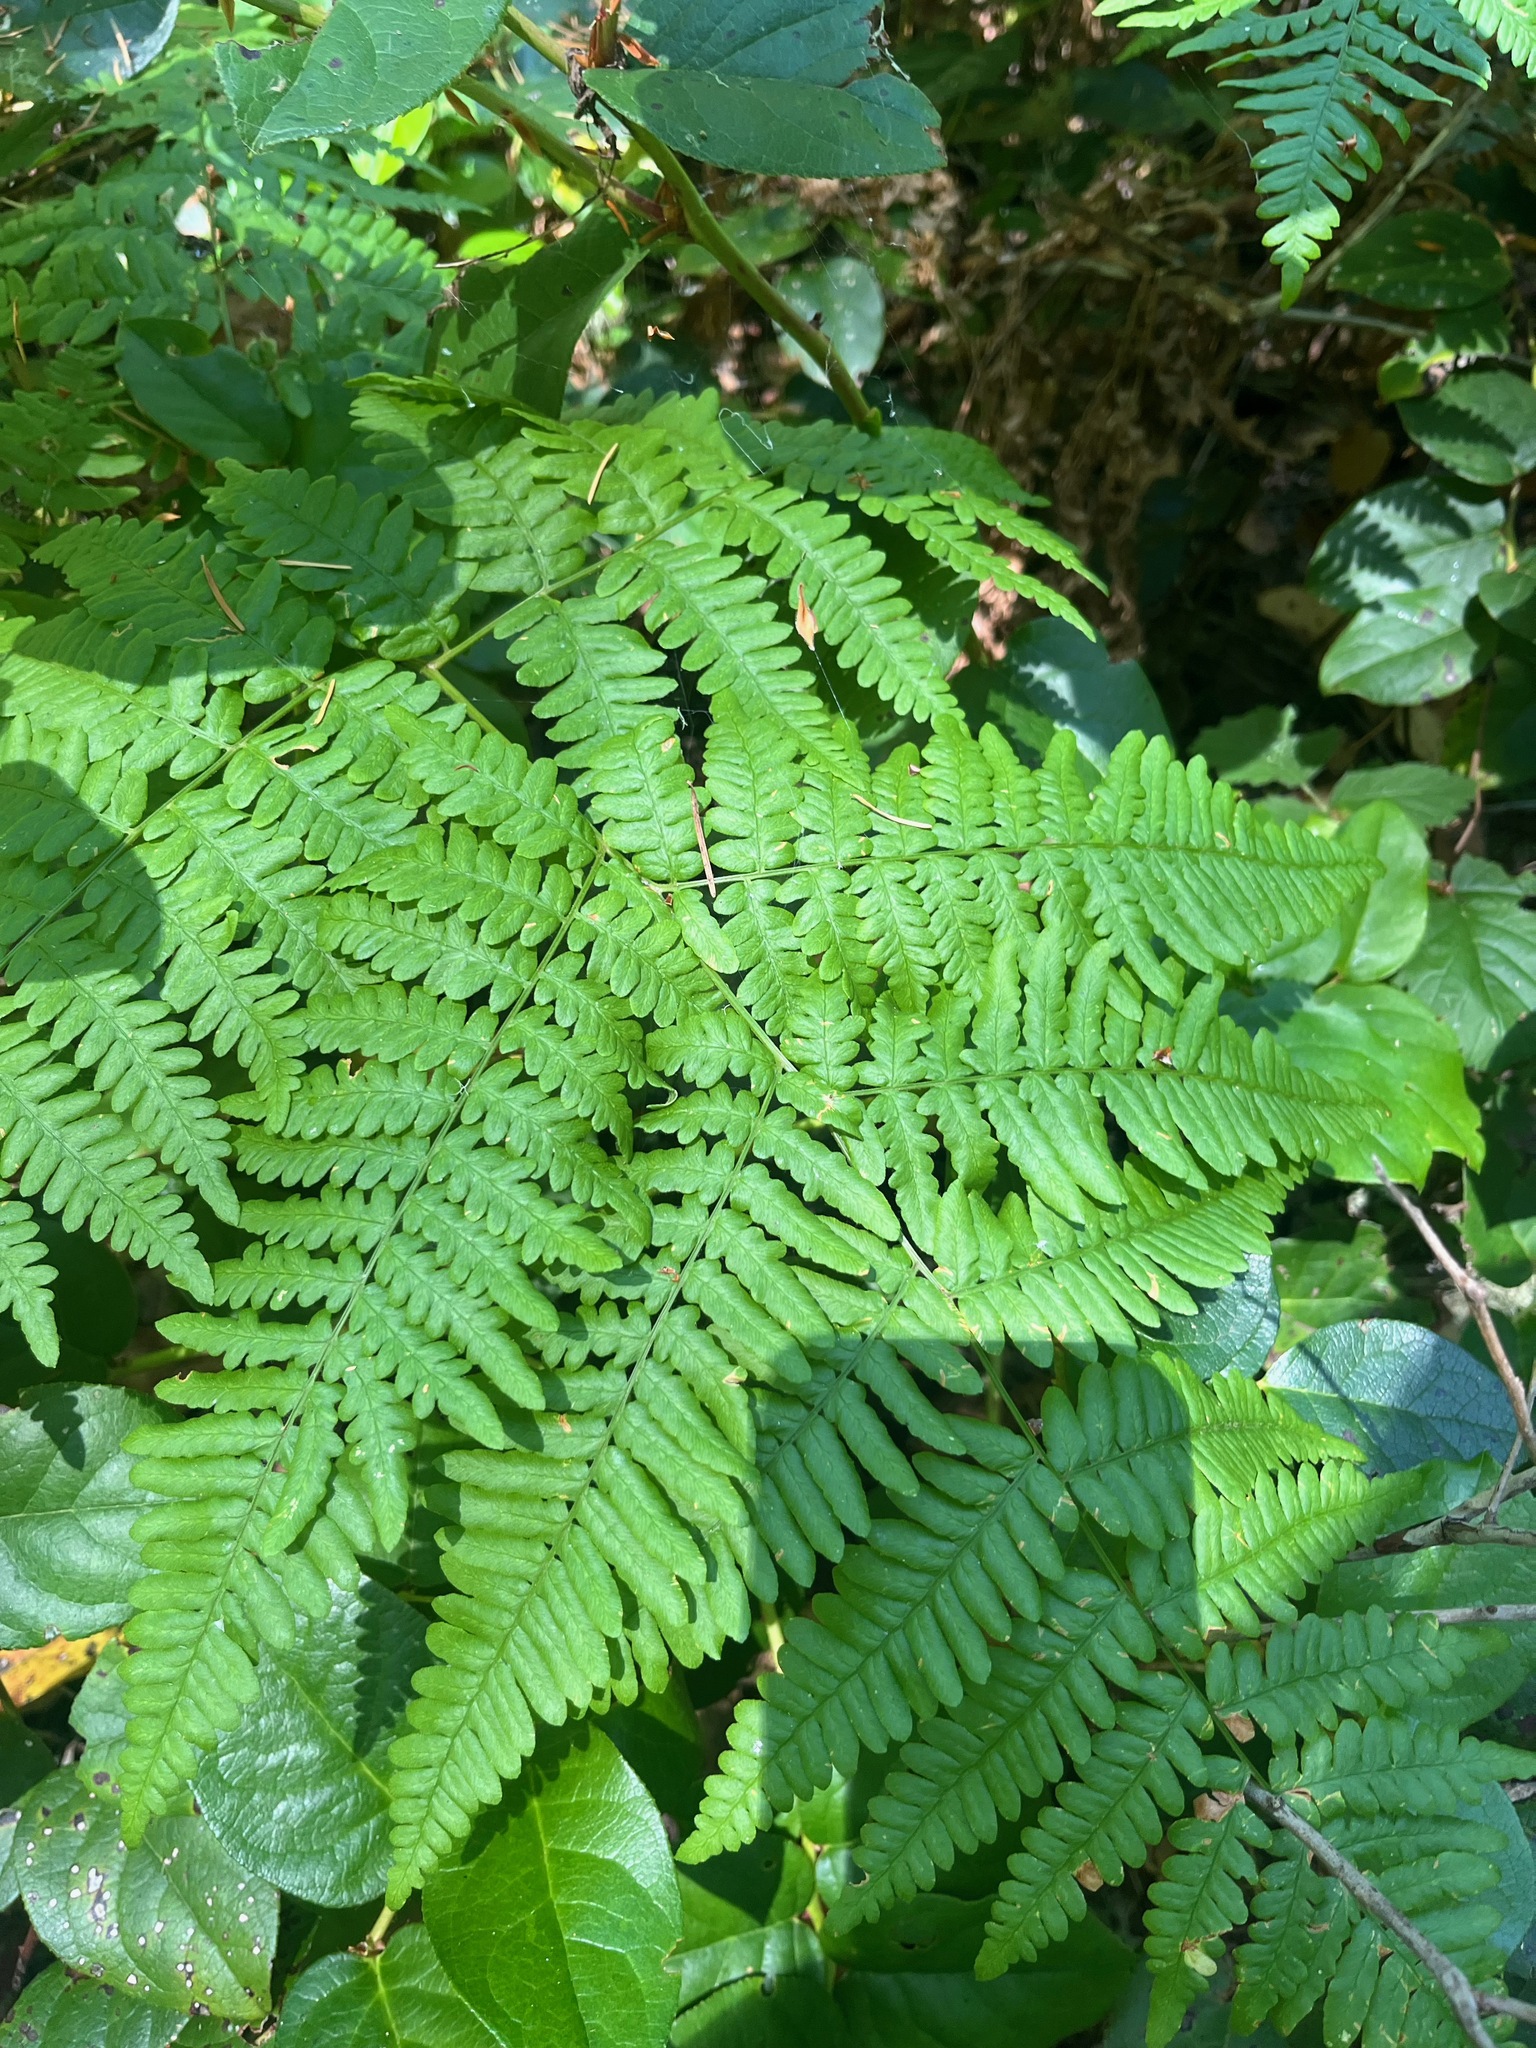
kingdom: Plantae
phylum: Tracheophyta
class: Polypodiopsida
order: Polypodiales
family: Dennstaedtiaceae
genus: Pteridium
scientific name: Pteridium aquilinum
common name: Bracken
